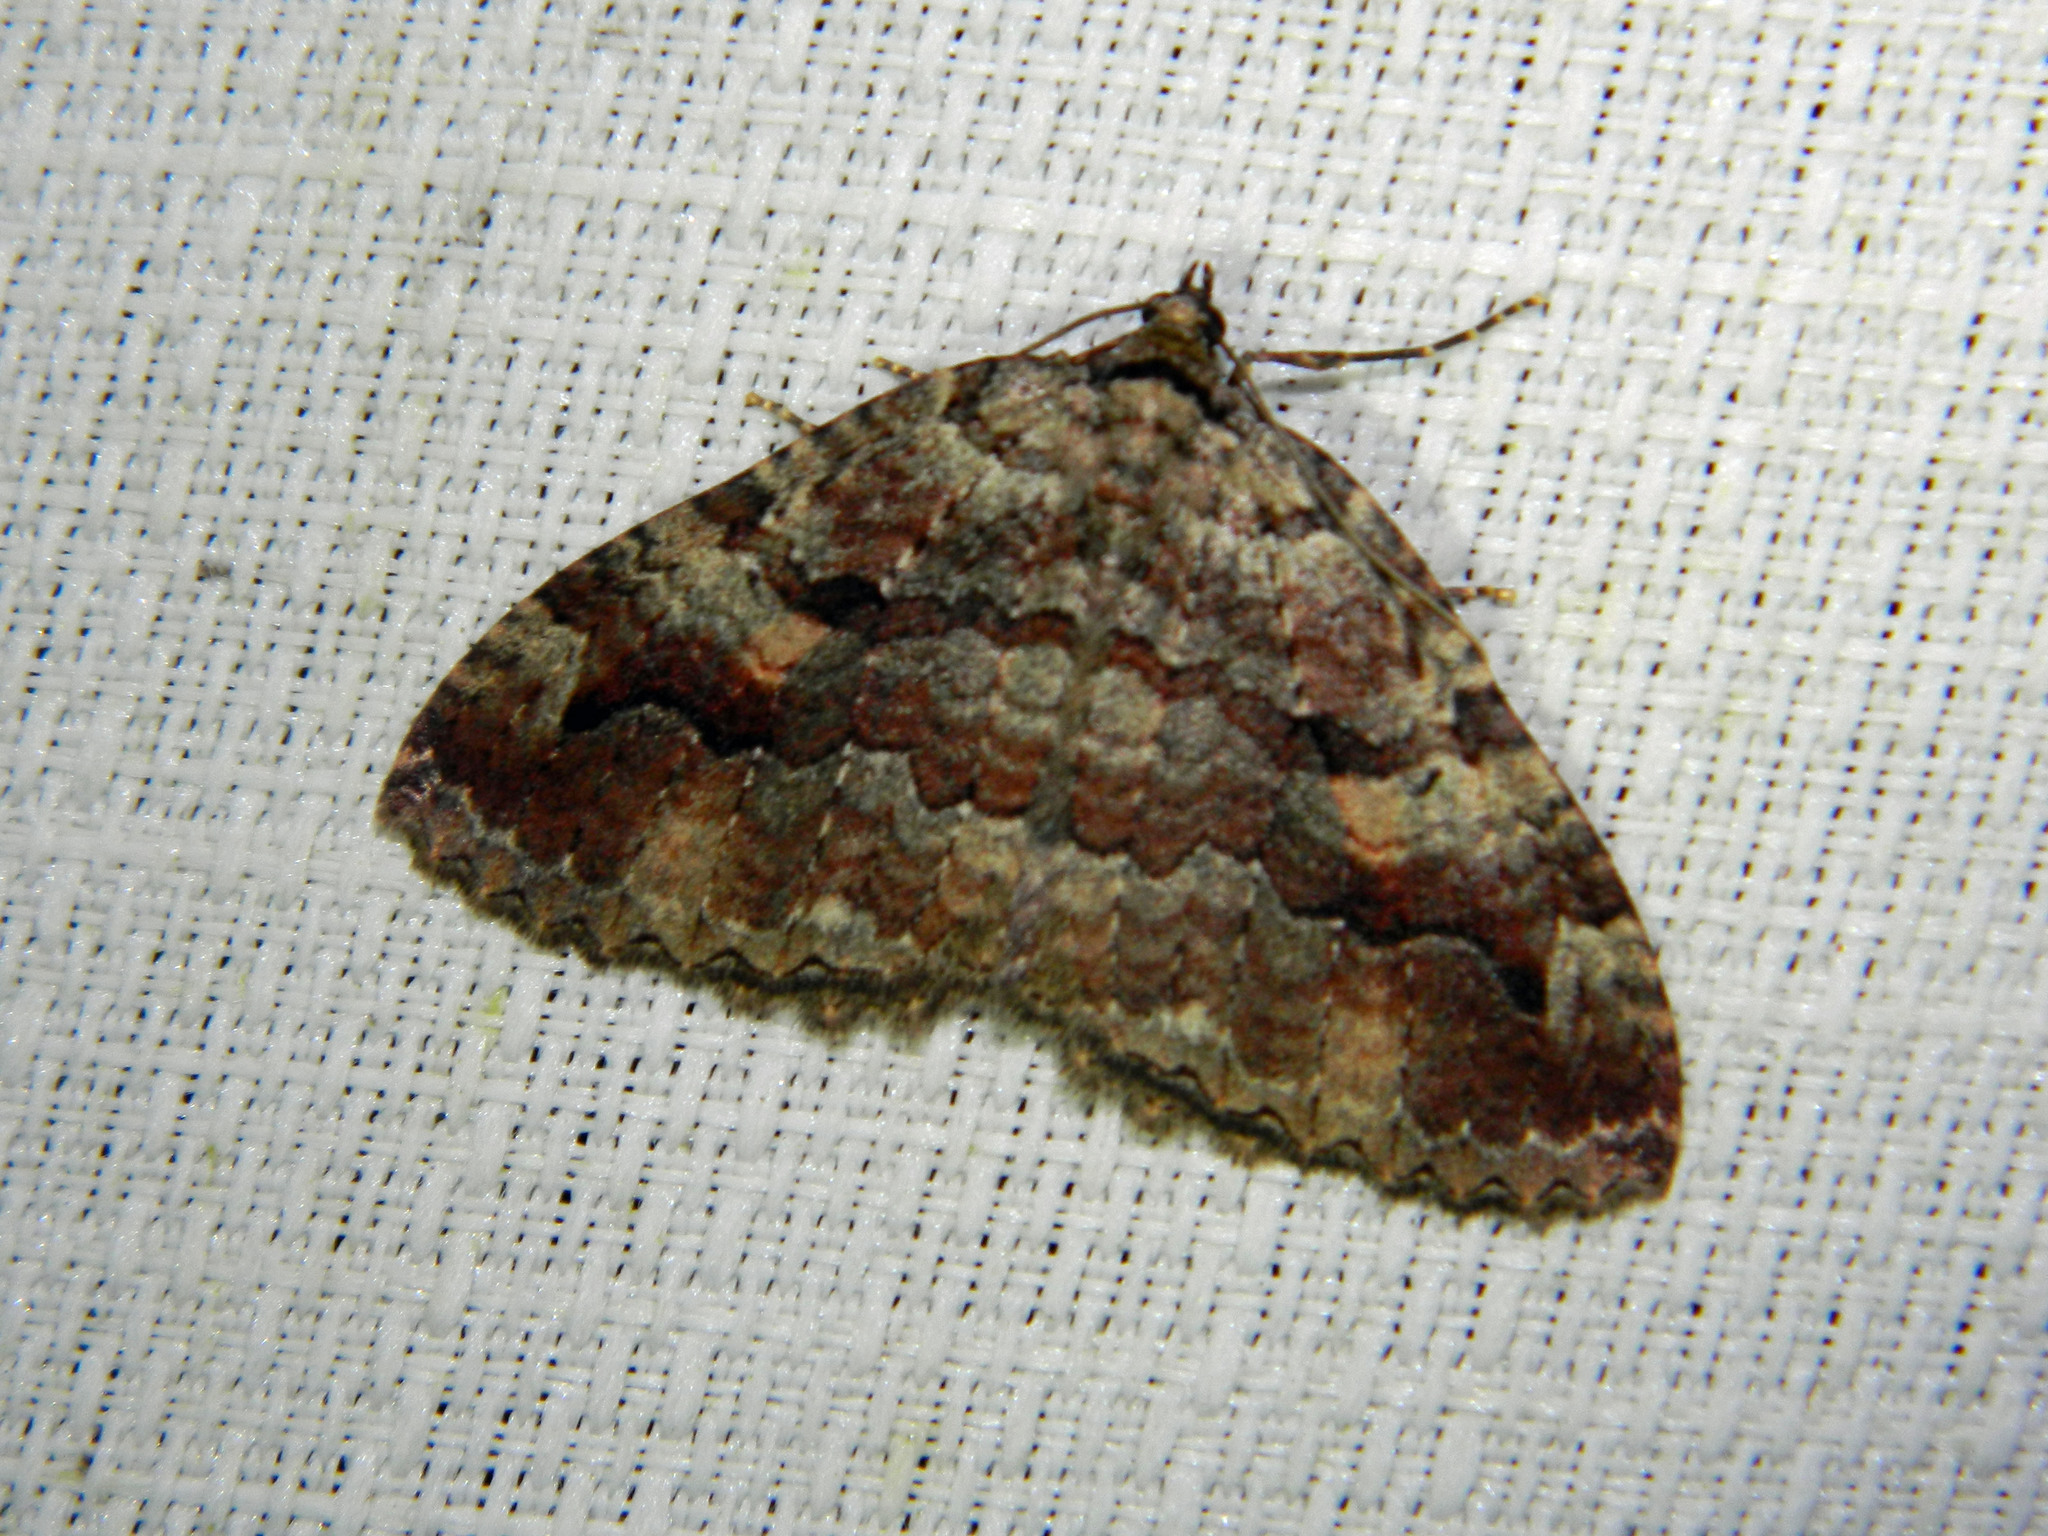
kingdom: Animalia
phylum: Arthropoda
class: Insecta
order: Lepidoptera
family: Geometridae
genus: Triphosa
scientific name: Triphosa haesitata
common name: Tissue moth
